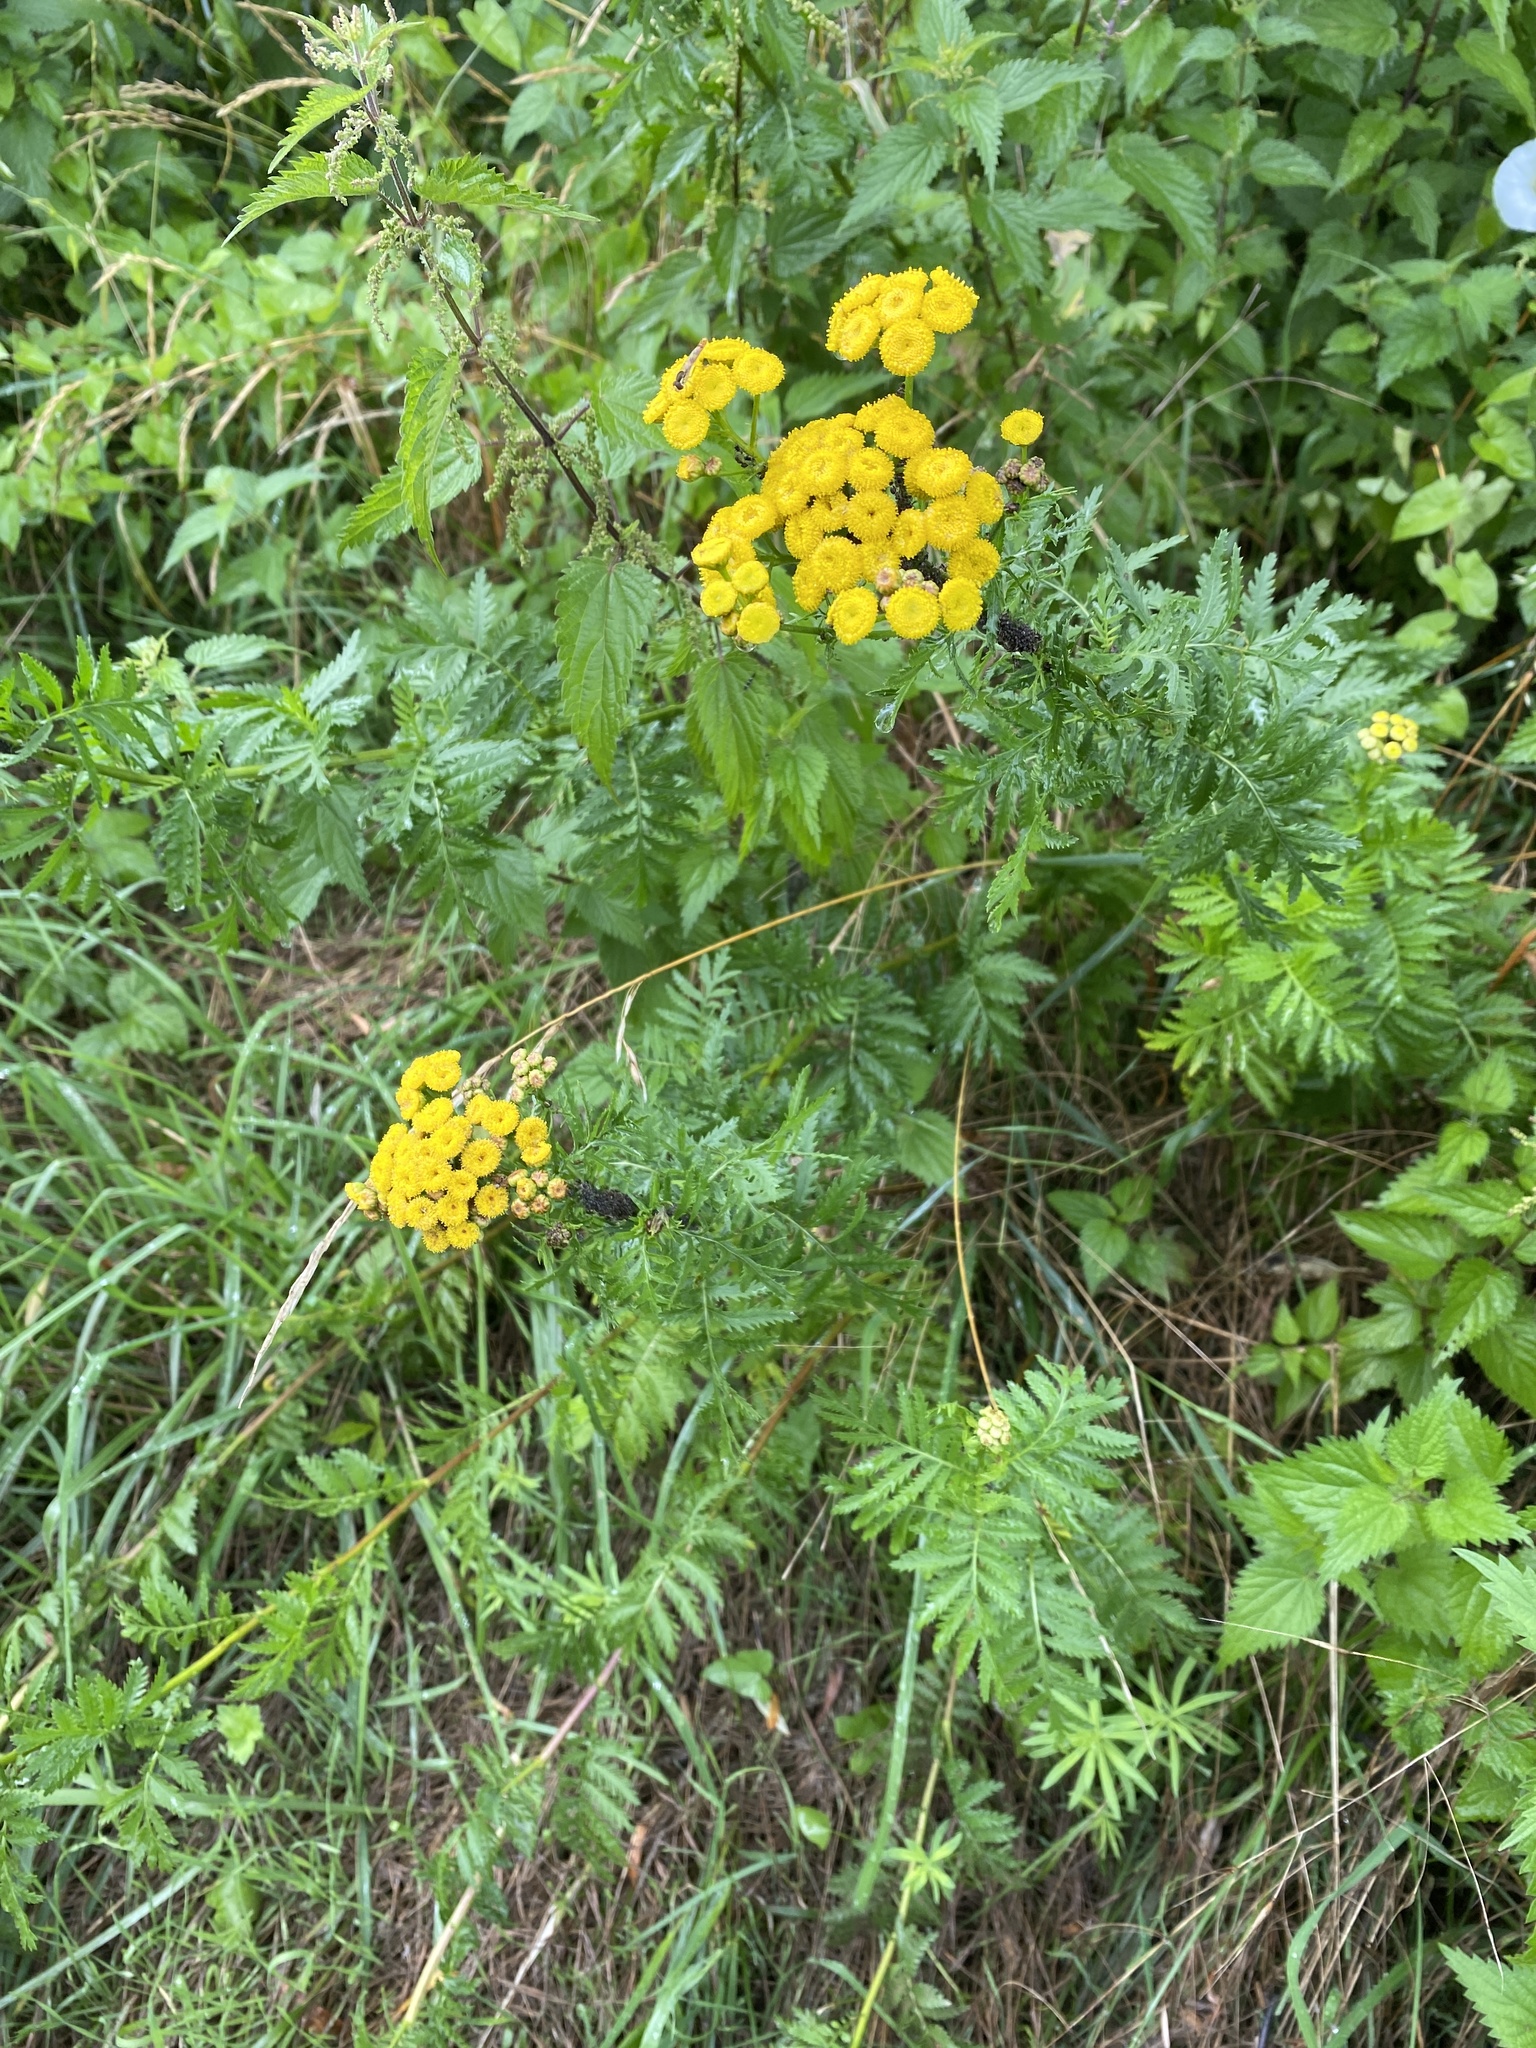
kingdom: Plantae
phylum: Tracheophyta
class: Magnoliopsida
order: Asterales
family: Asteraceae
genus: Tanacetum
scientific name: Tanacetum vulgare
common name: Common tansy
